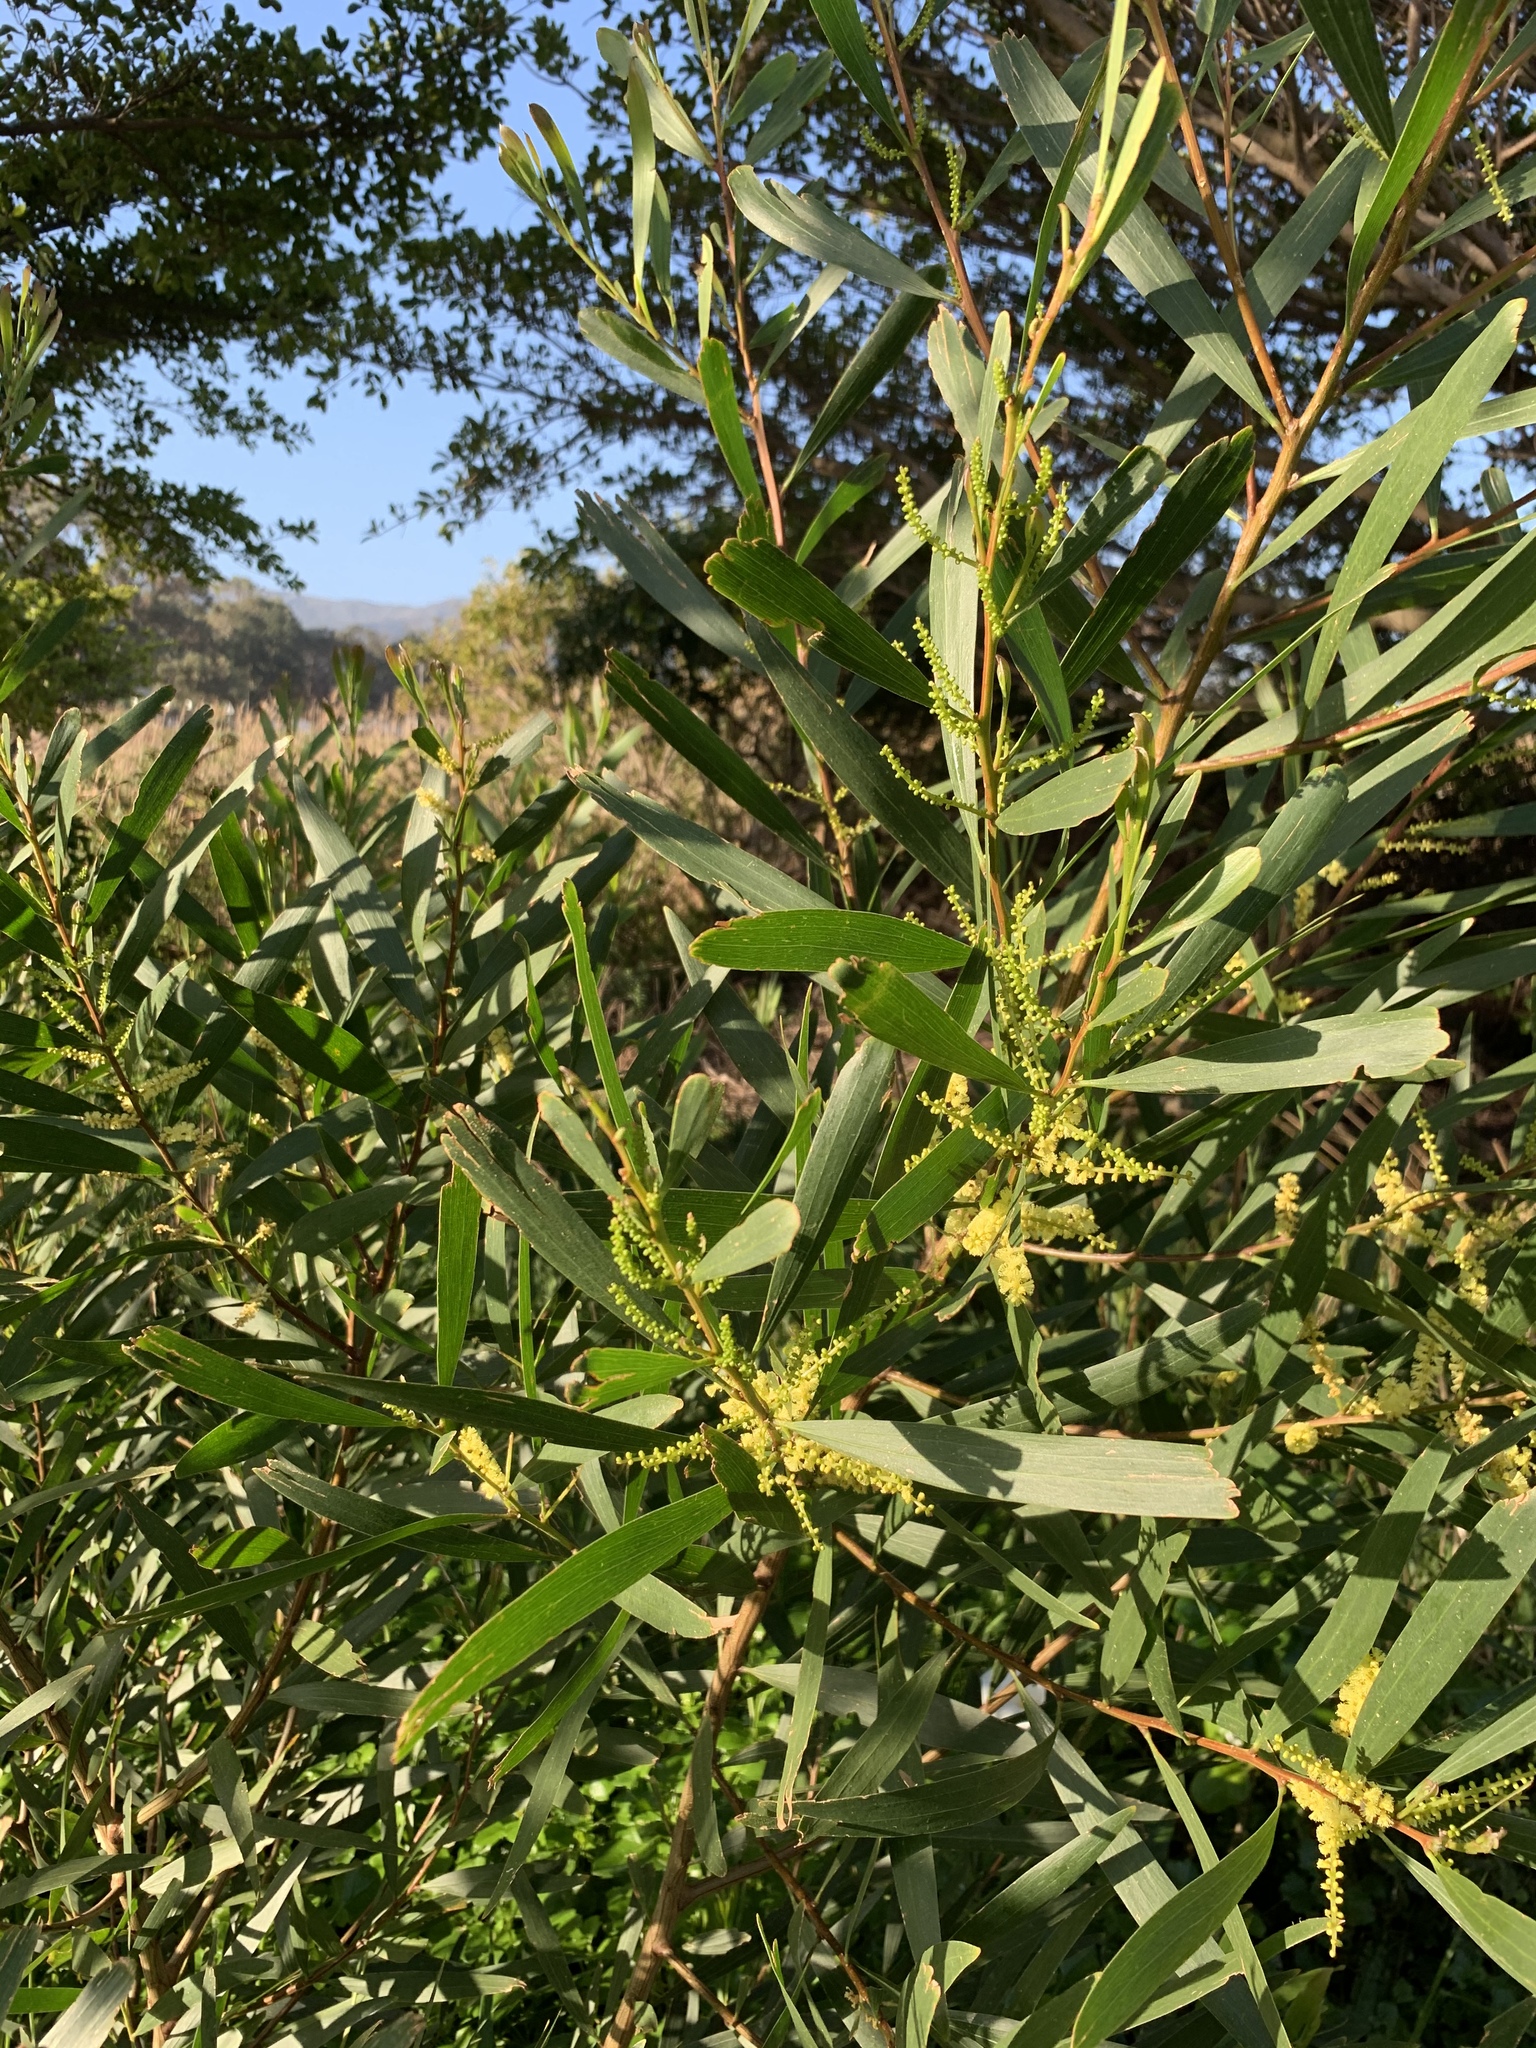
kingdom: Plantae
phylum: Tracheophyta
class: Magnoliopsida
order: Fabales
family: Fabaceae
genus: Acacia
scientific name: Acacia longifolia
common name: Sydney golden wattle
